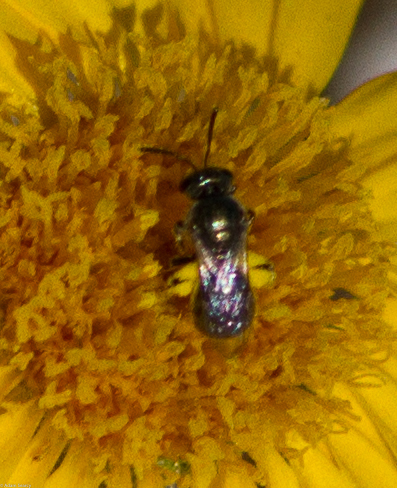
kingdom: Animalia
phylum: Arthropoda
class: Insecta
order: Hymenoptera
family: Halictidae
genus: Dialictus
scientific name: Dialictus
